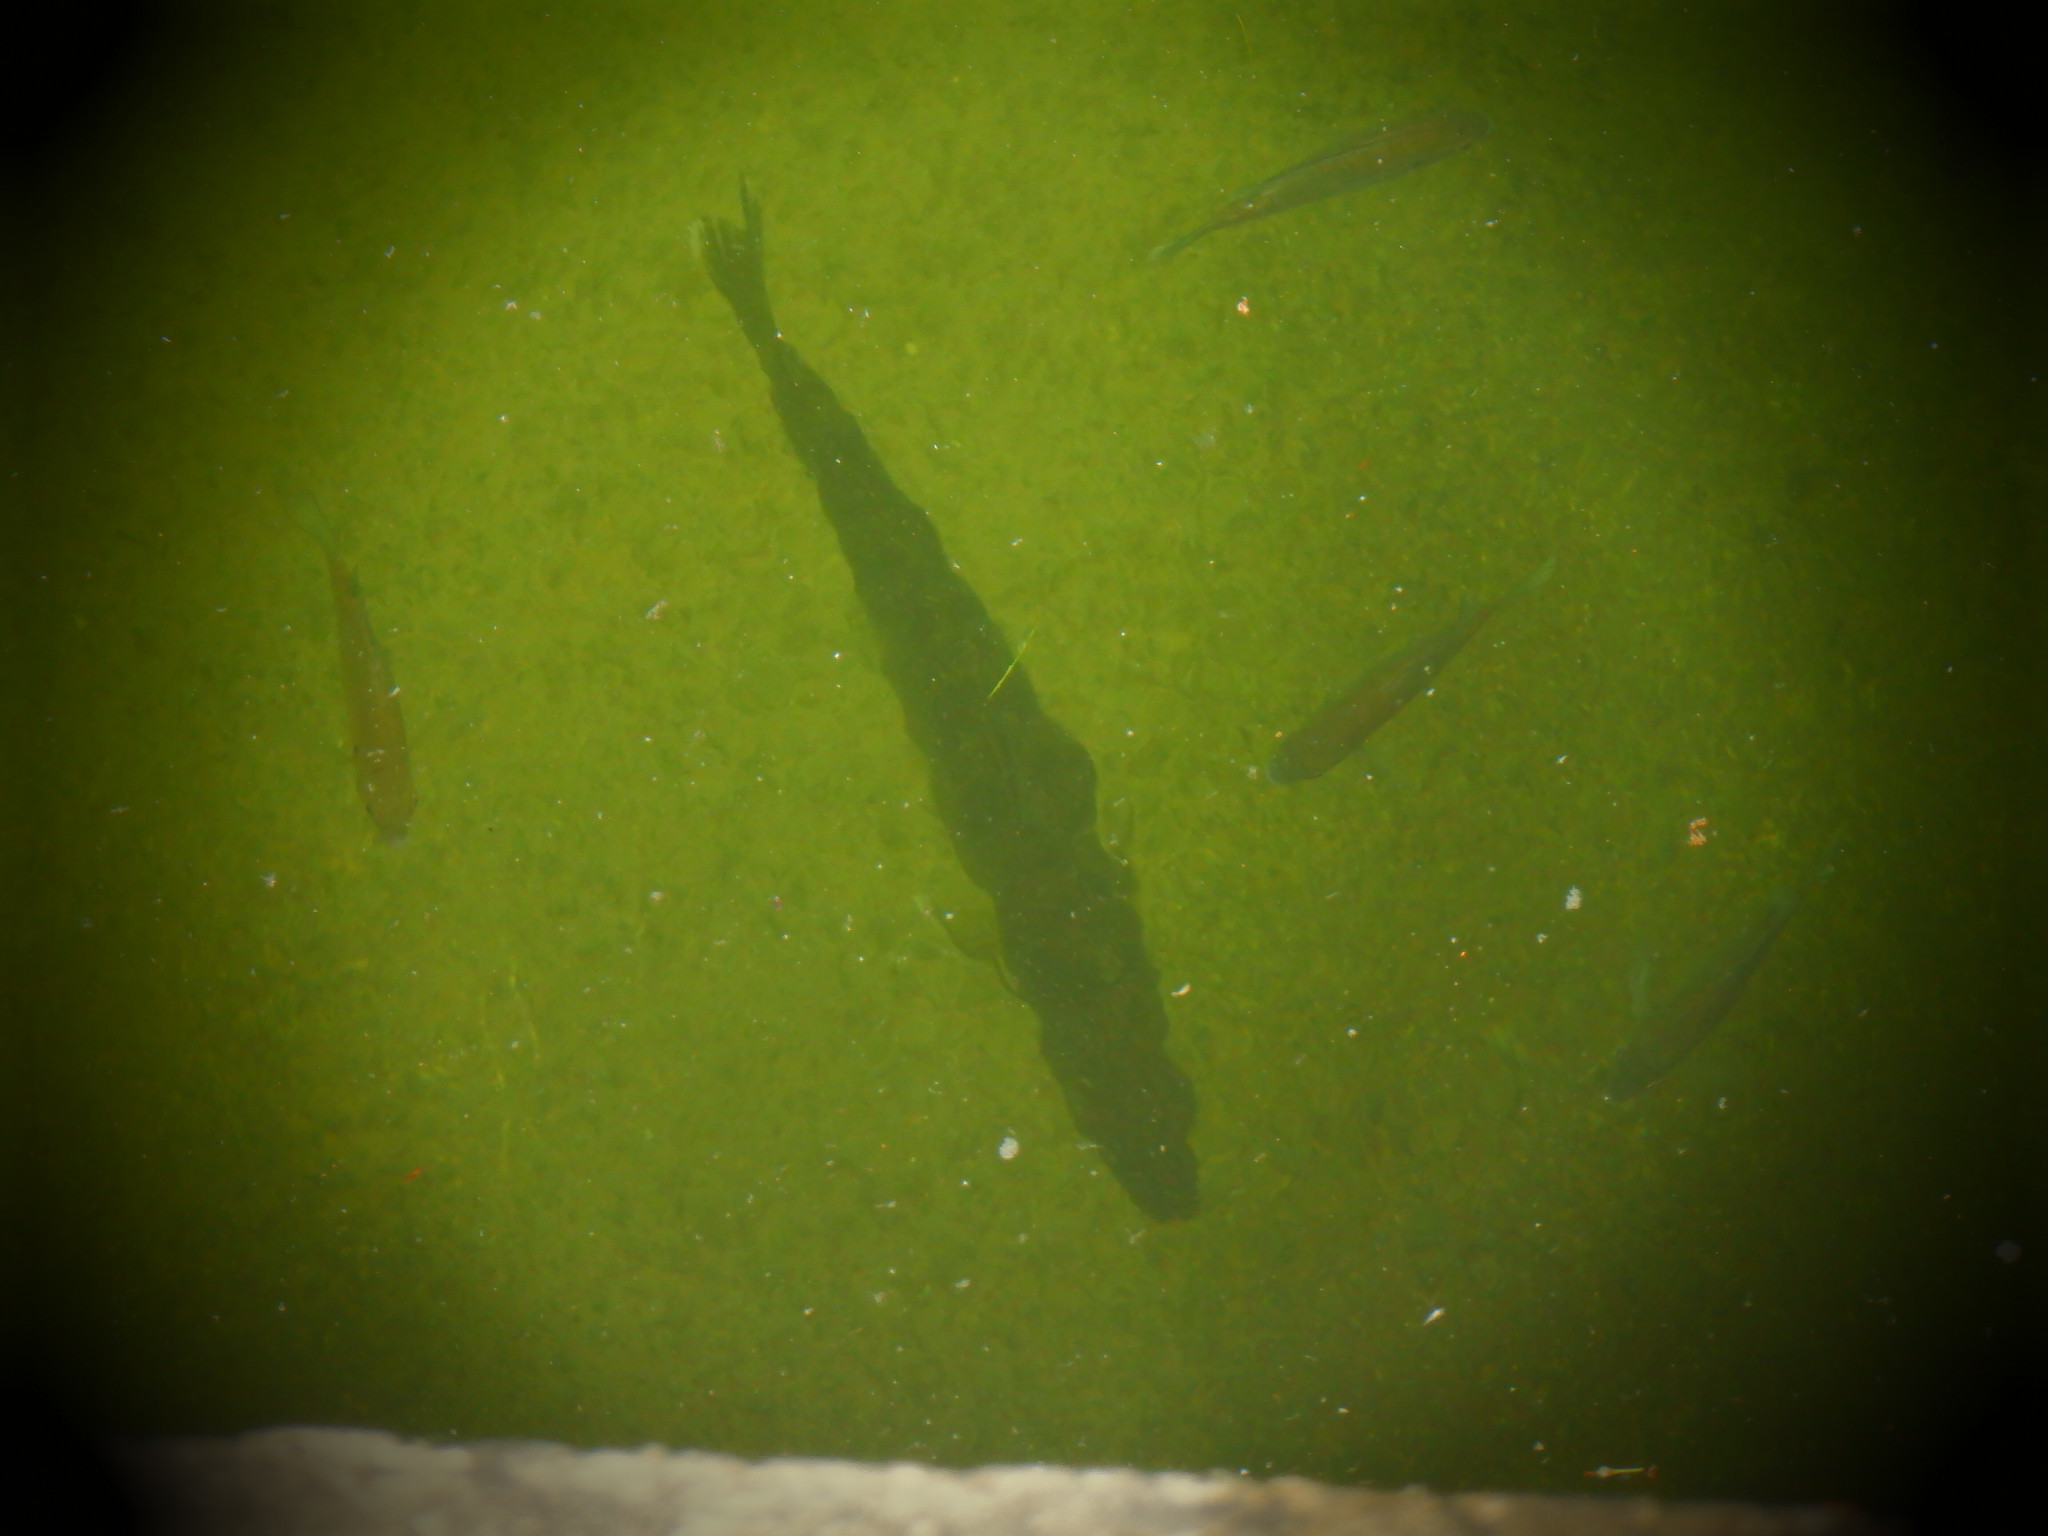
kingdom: Animalia
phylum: Chordata
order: Perciformes
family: Centrarchidae
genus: Lepomis
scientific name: Lepomis macrochirus
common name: Bluegill
